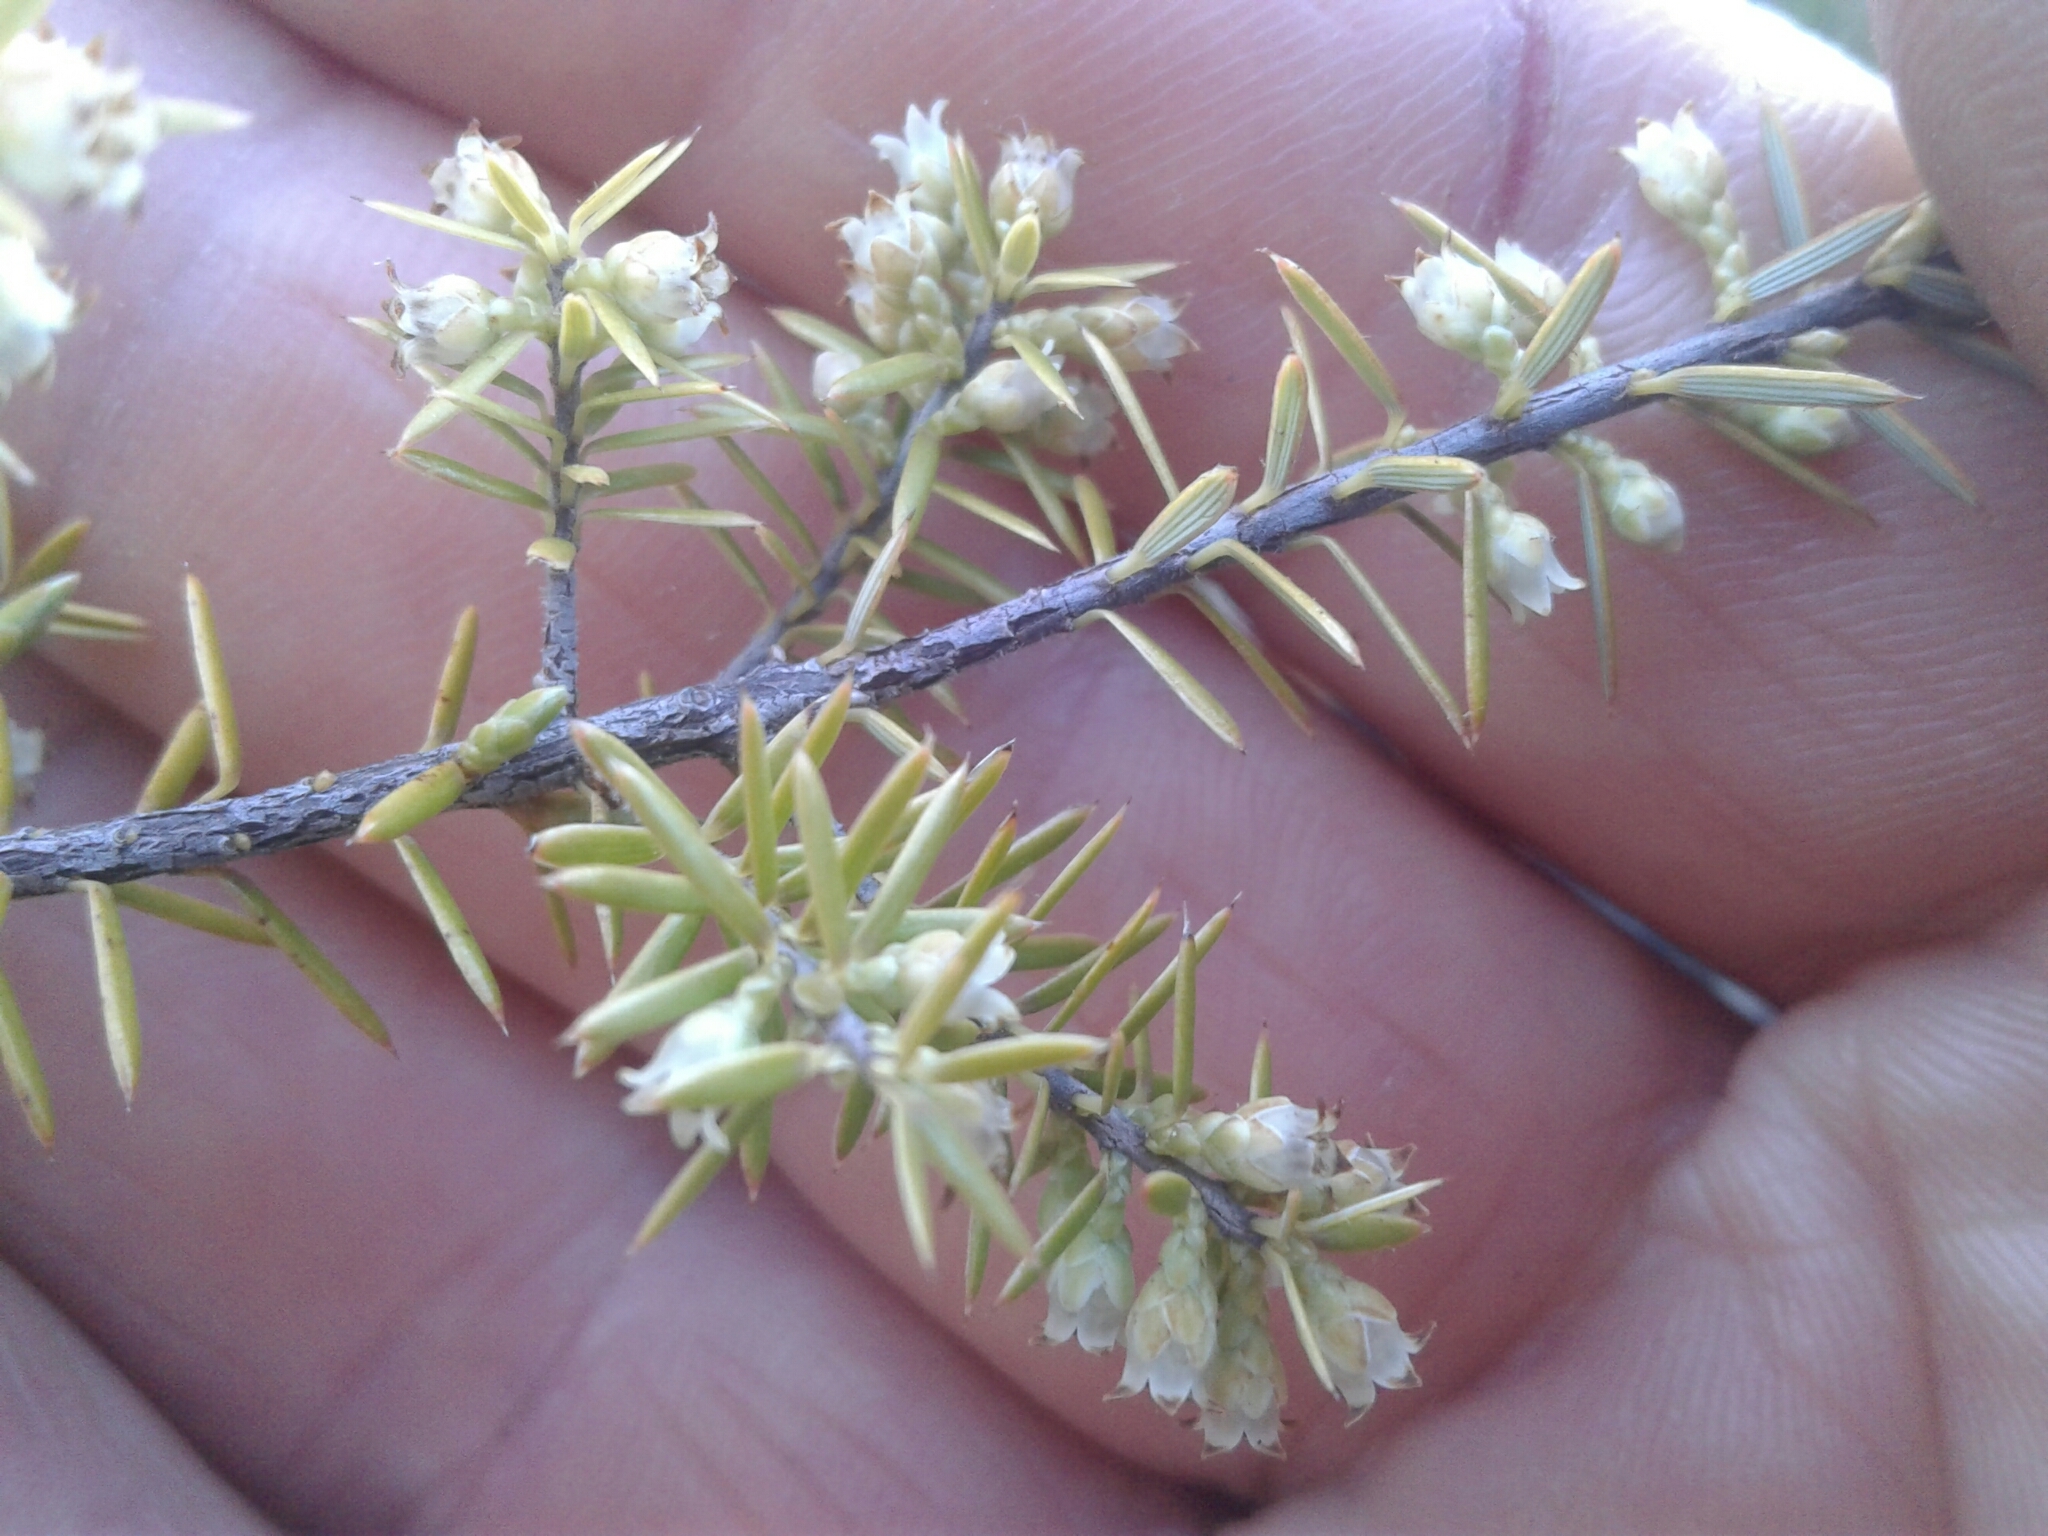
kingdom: Plantae
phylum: Tracheophyta
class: Magnoliopsida
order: Ericales
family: Ericaceae
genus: Leptecophylla
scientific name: Leptecophylla juniperina
